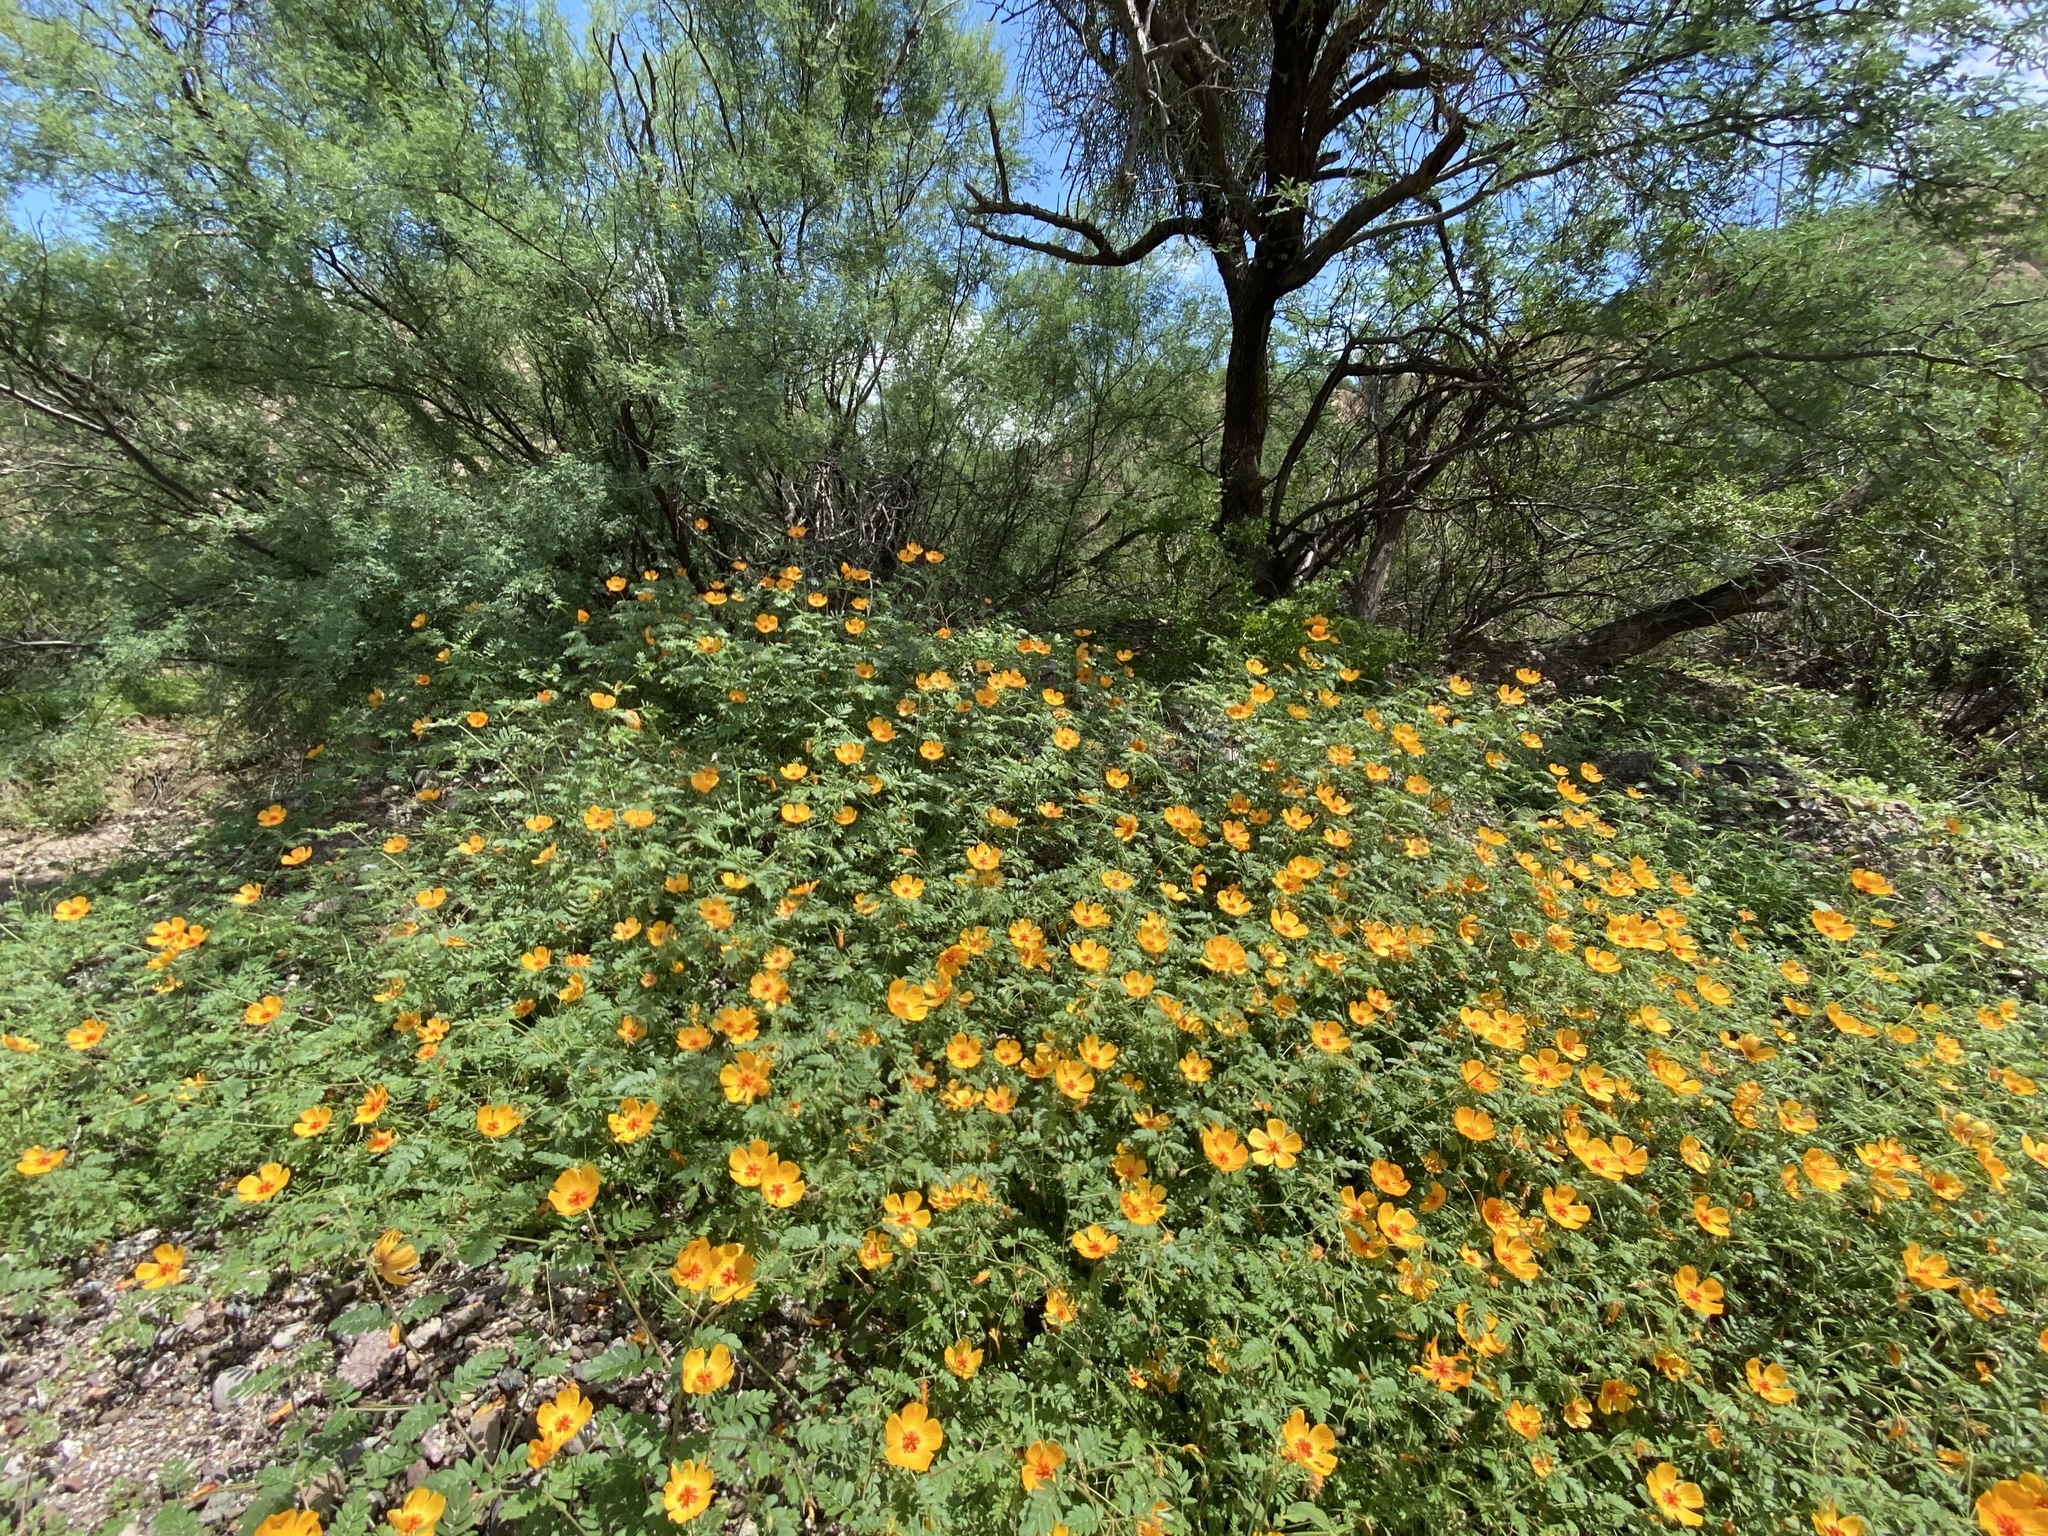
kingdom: Plantae
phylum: Tracheophyta
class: Magnoliopsida
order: Zygophyllales
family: Zygophyllaceae
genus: Kallstroemia
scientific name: Kallstroemia grandiflora
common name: Arizona-poppy
